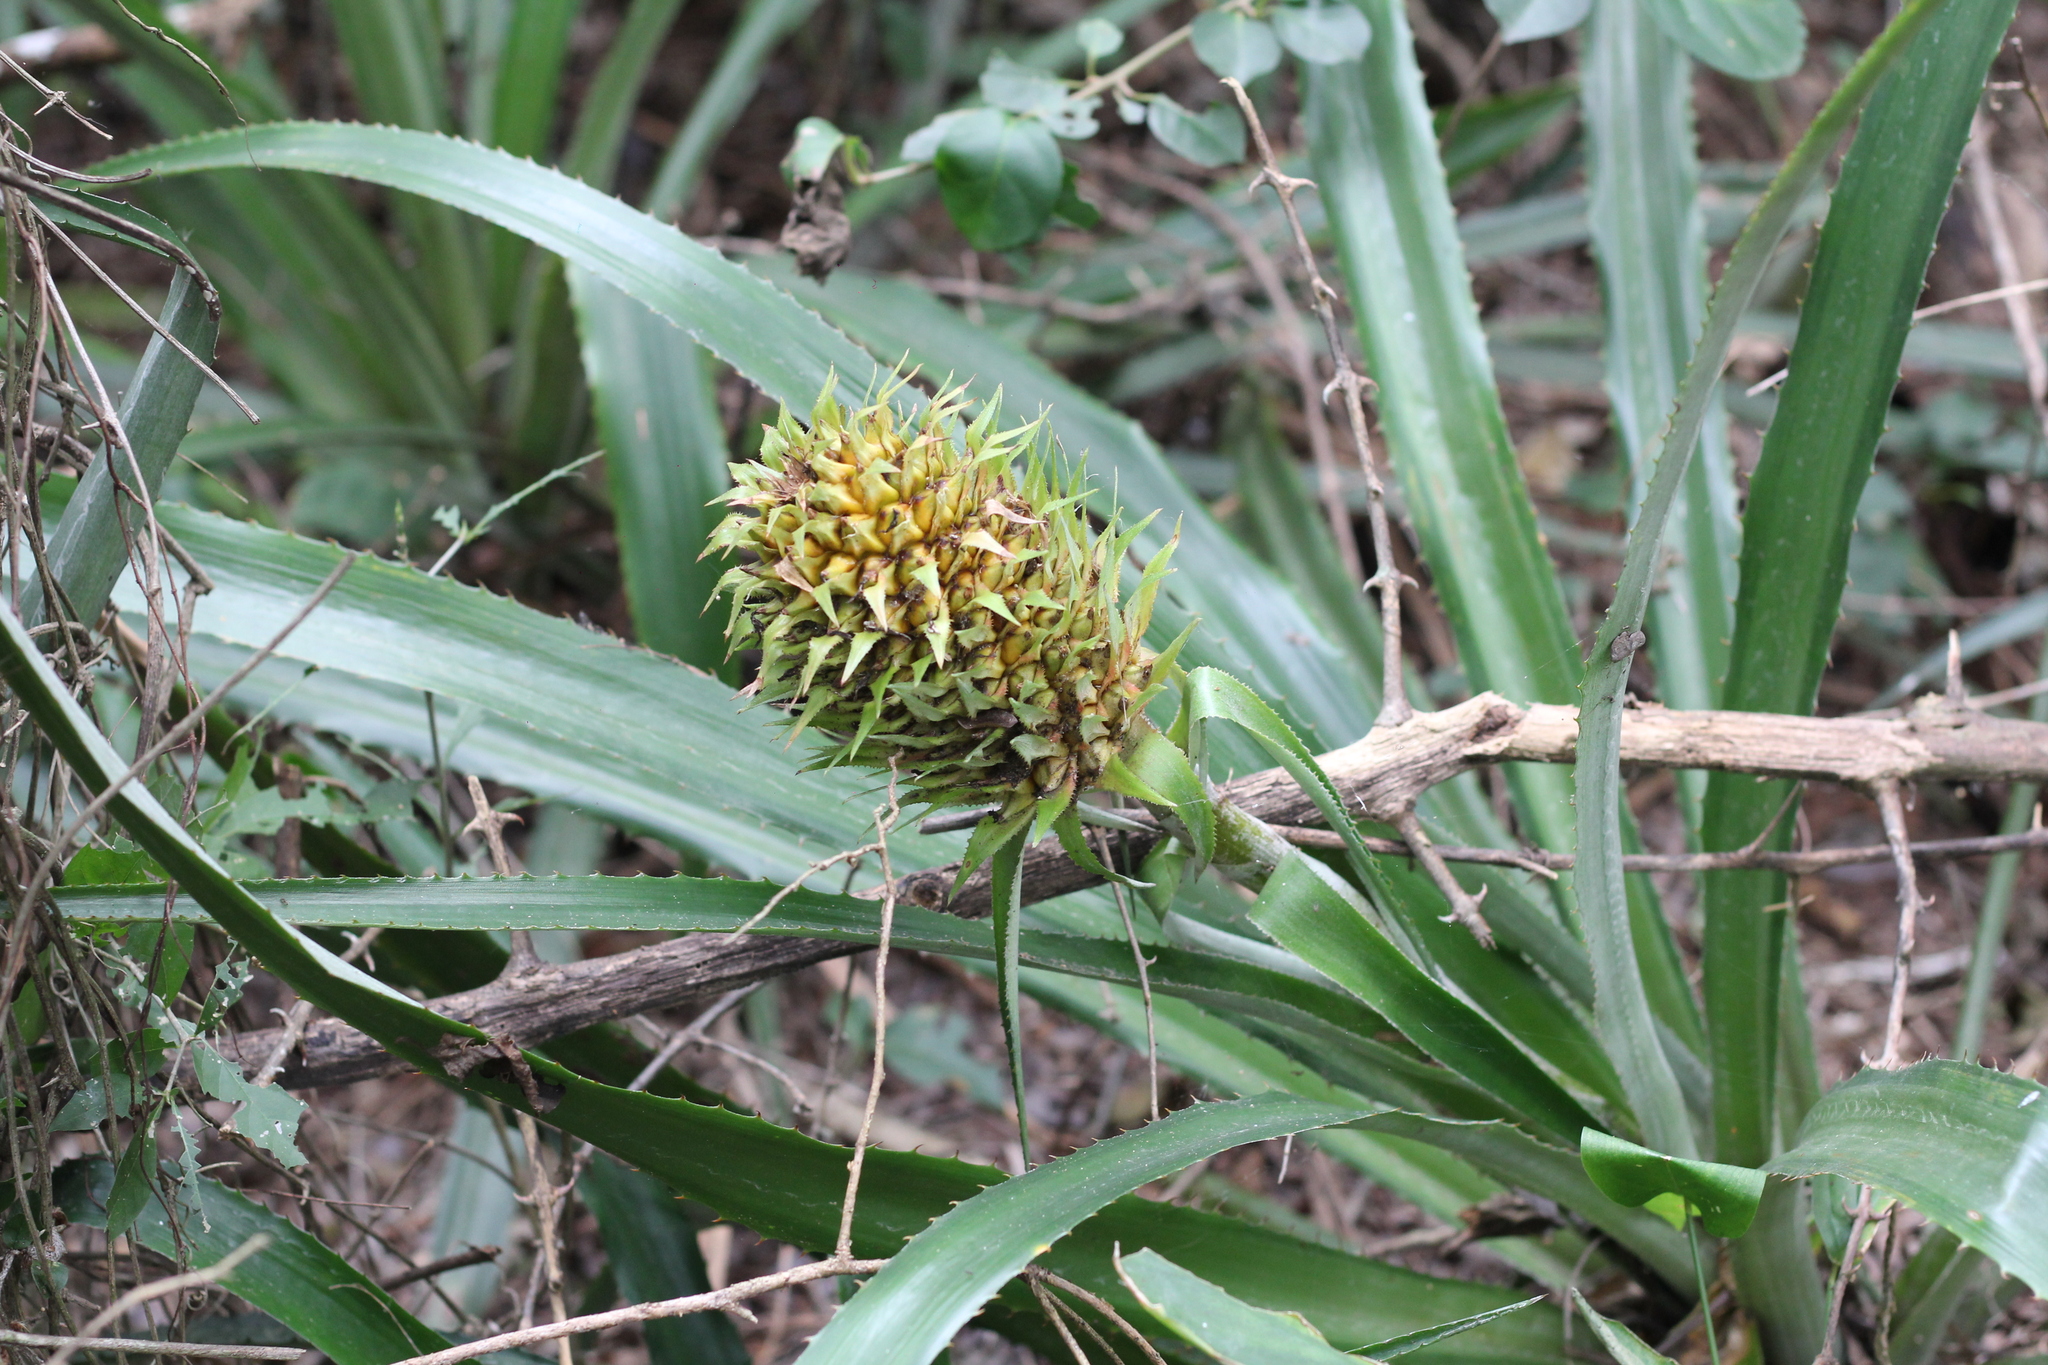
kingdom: Plantae
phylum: Tracheophyta
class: Liliopsida
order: Poales
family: Bromeliaceae
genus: Ananas
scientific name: Ananas macrodontes
